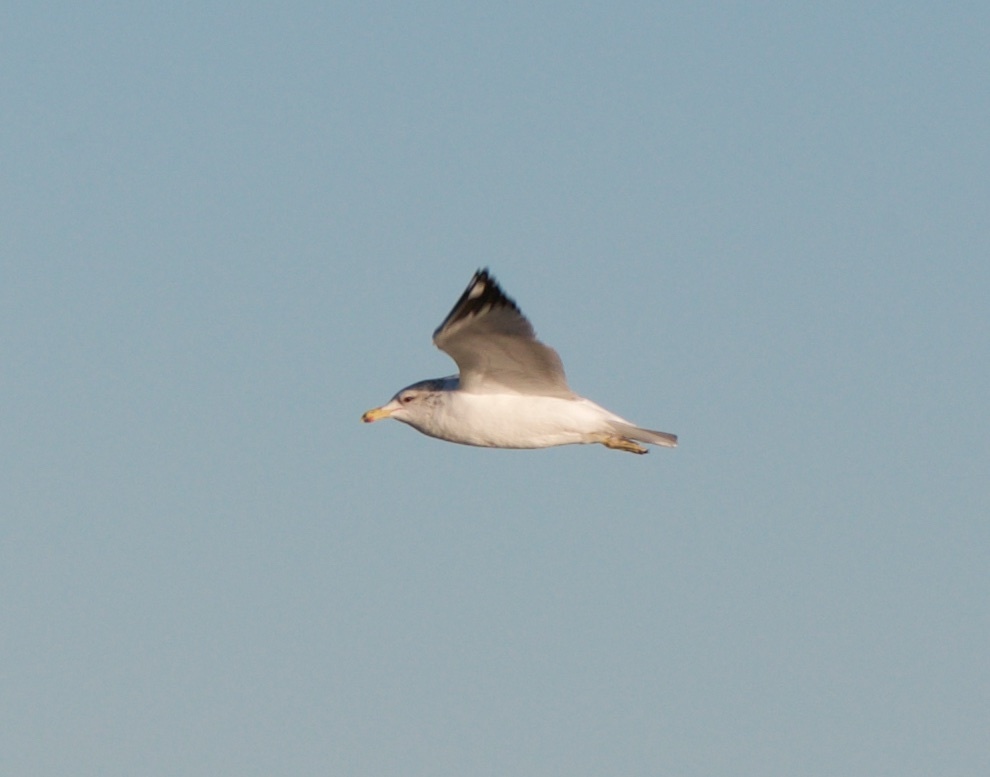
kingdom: Animalia
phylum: Chordata
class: Aves
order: Charadriiformes
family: Laridae
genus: Larus
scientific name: Larus californicus
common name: California gull
